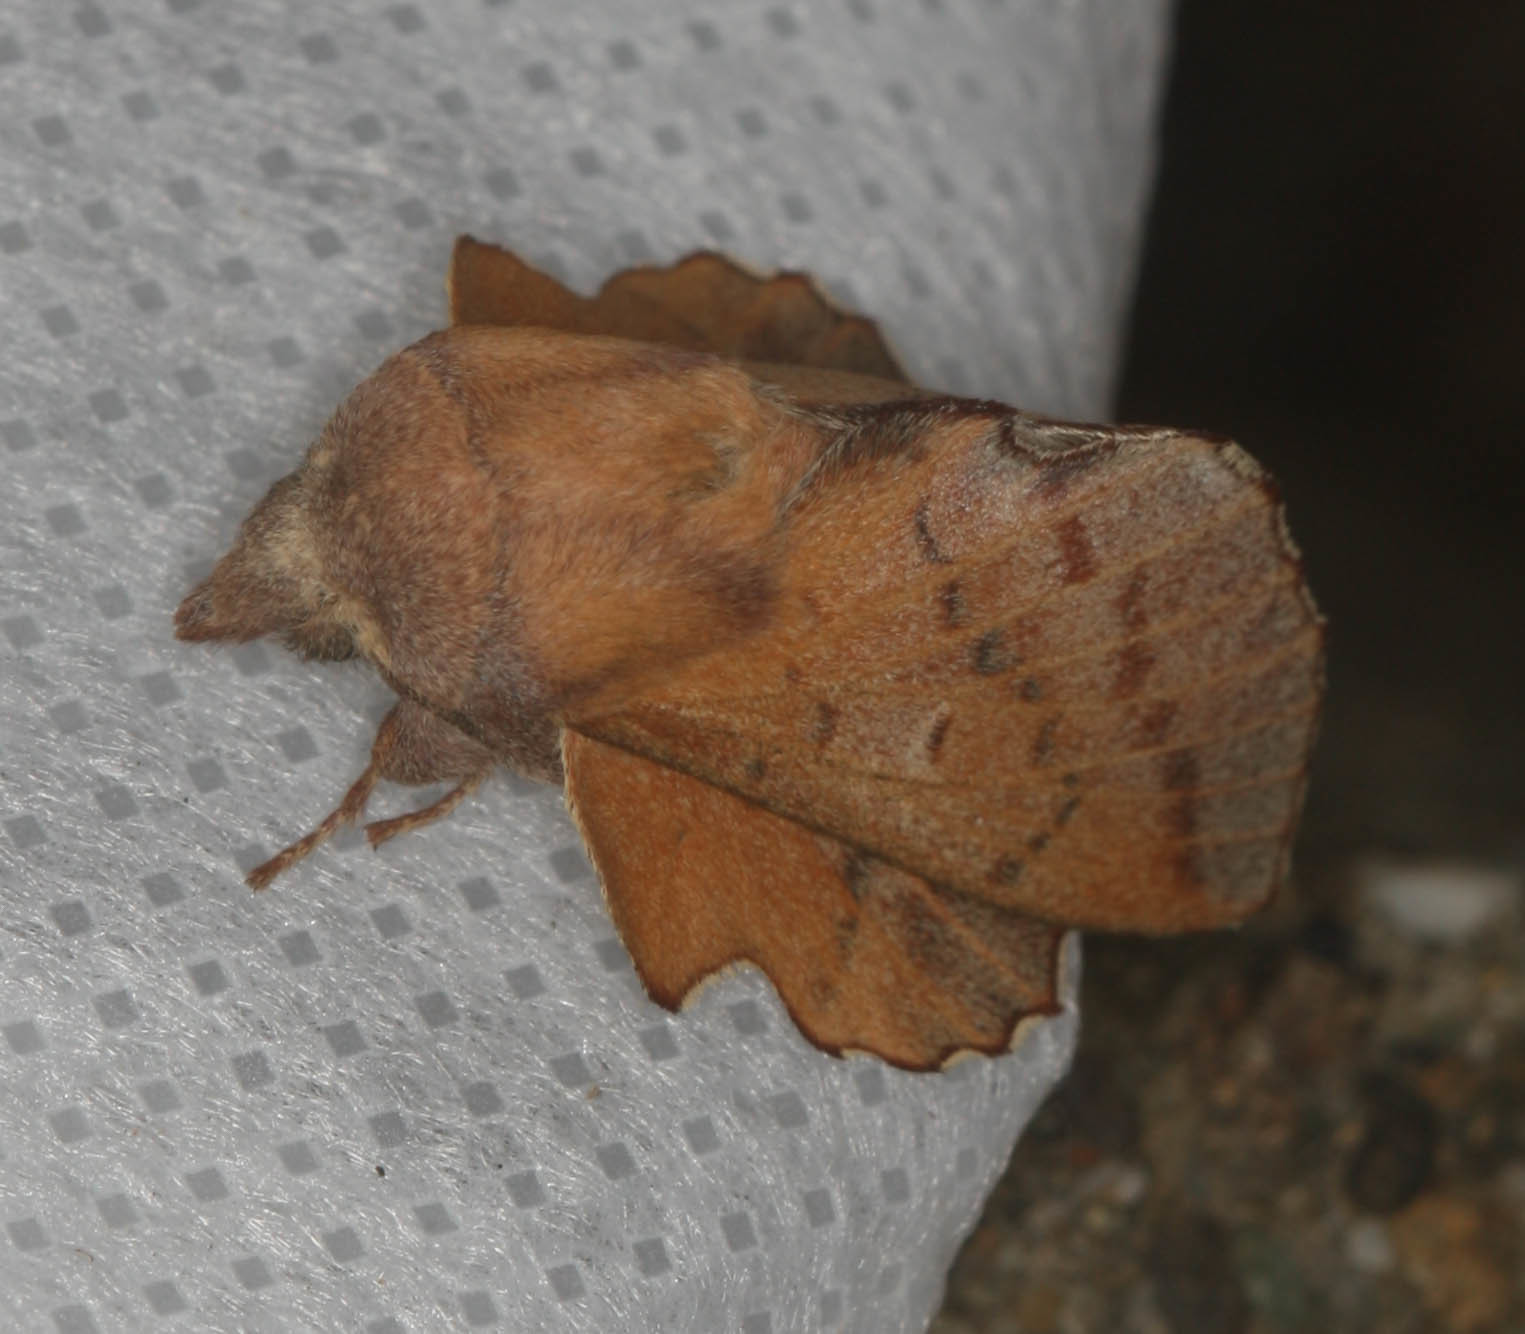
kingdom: Animalia
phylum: Arthropoda
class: Insecta
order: Lepidoptera
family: Lasiocampidae
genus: Phyllodesma
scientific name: Phyllodesma americana
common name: American lappet moth
